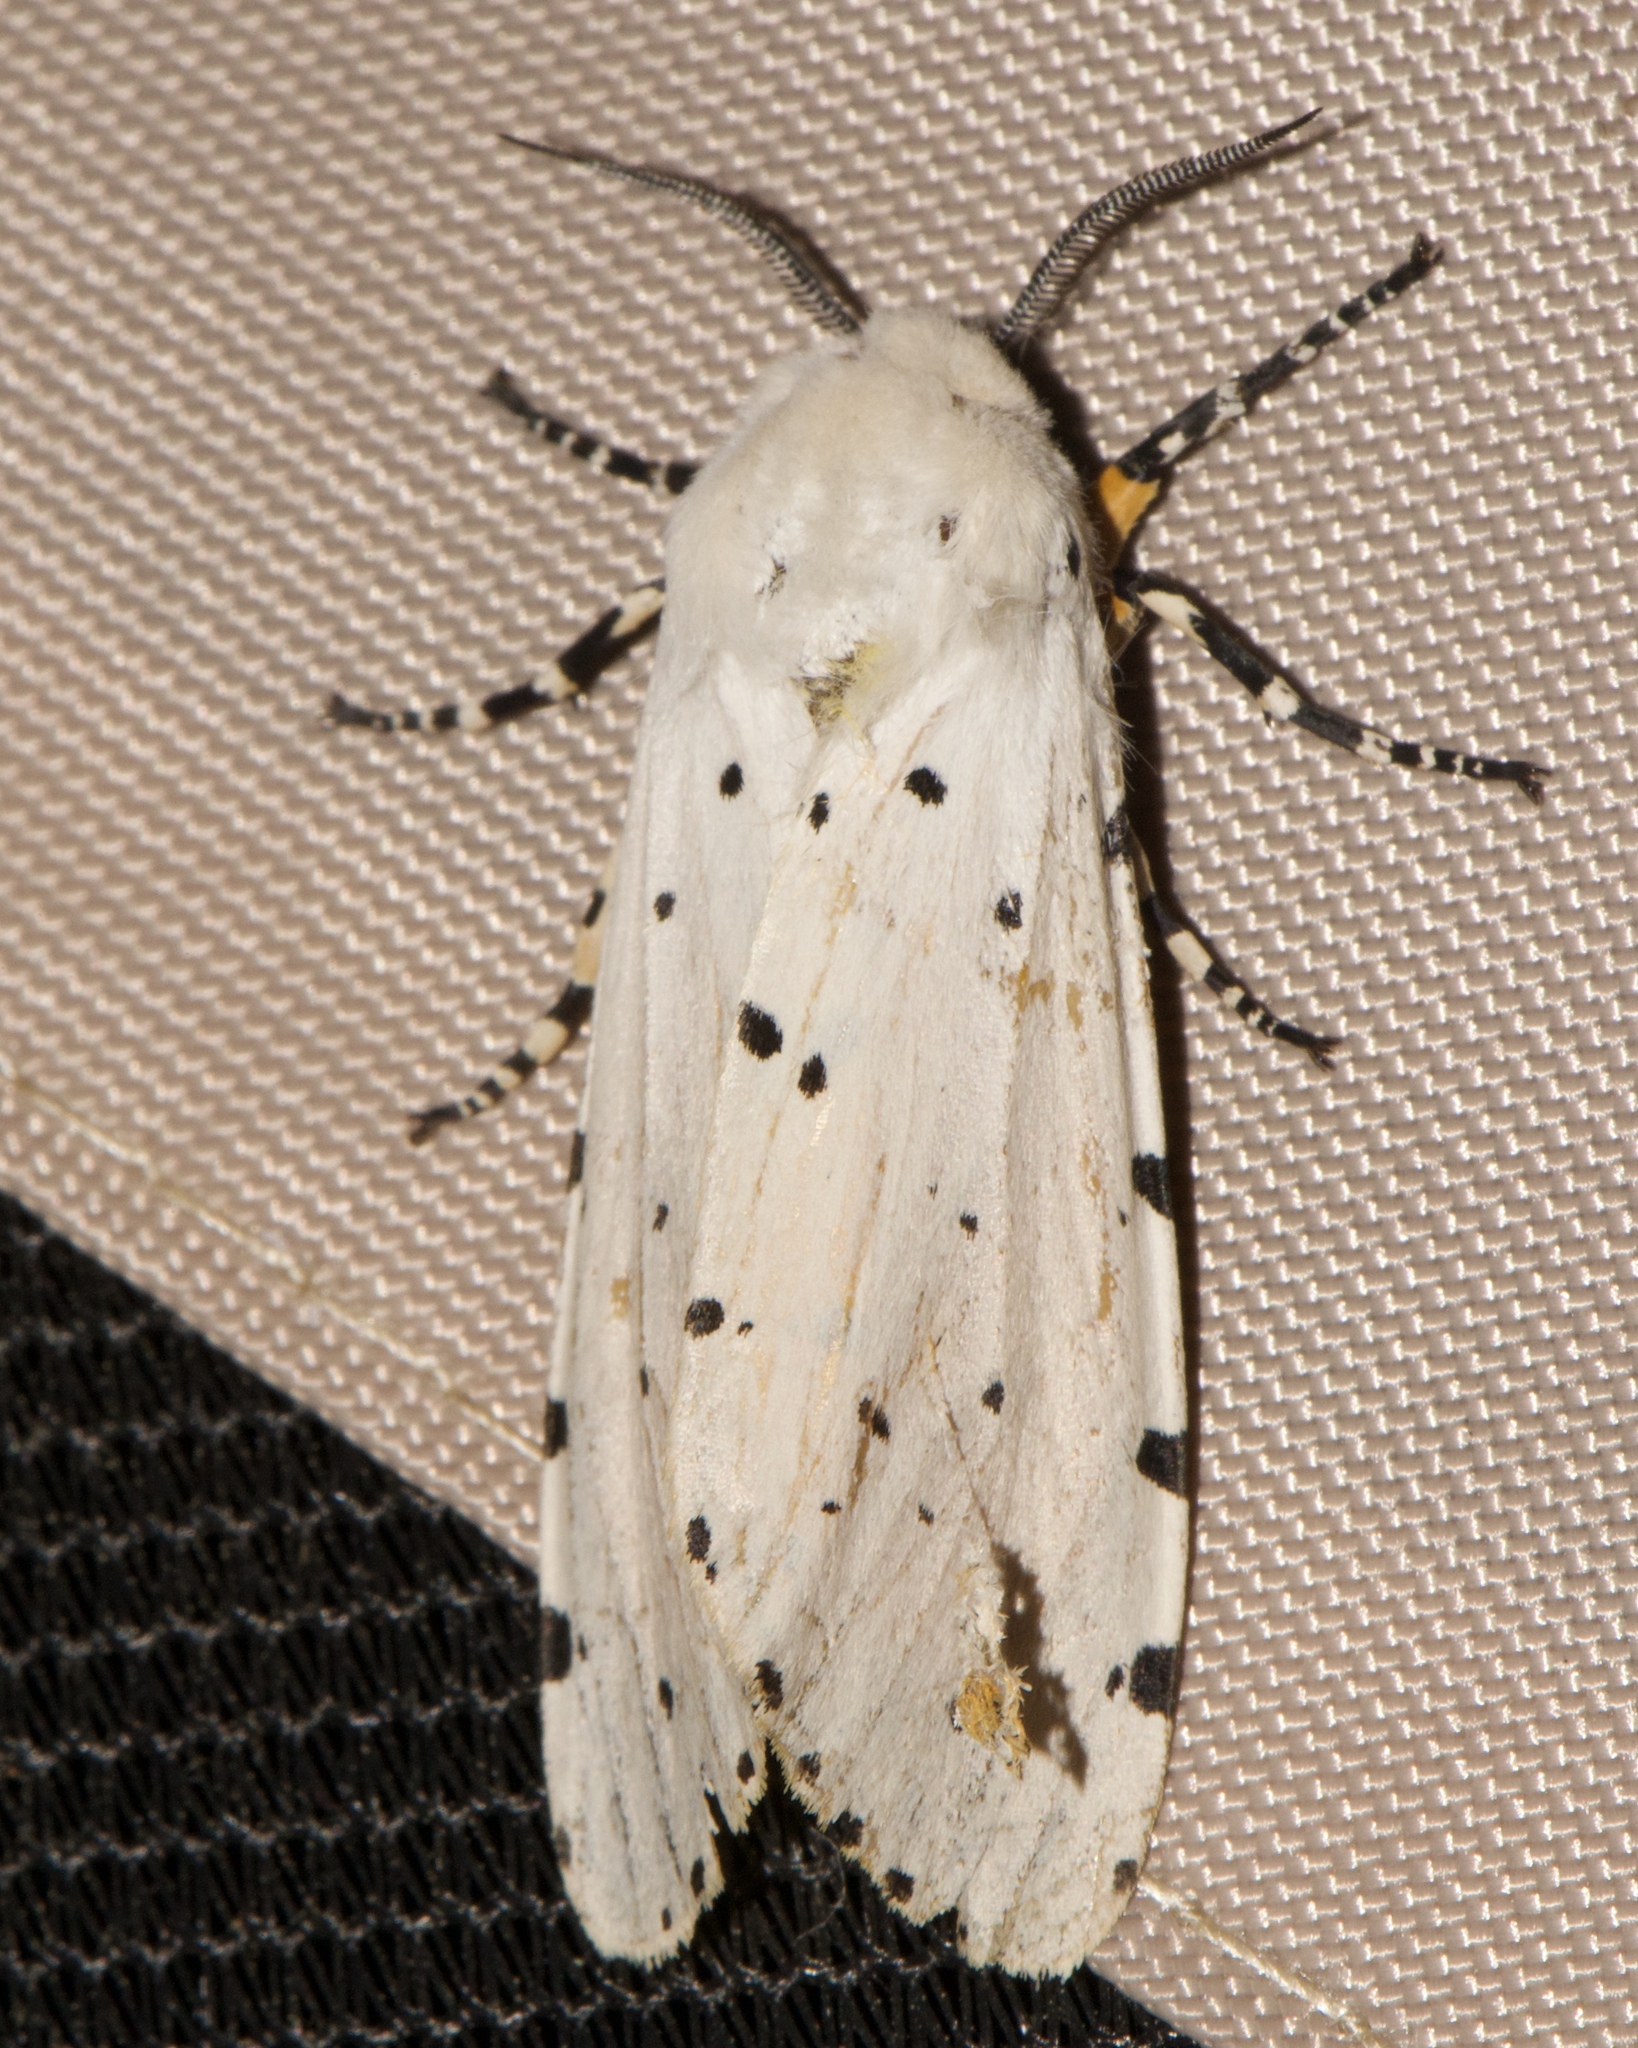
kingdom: Animalia
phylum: Arthropoda
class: Insecta
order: Lepidoptera
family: Erebidae
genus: Estigmene
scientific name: Estigmene acrea
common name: Salt marsh moth
